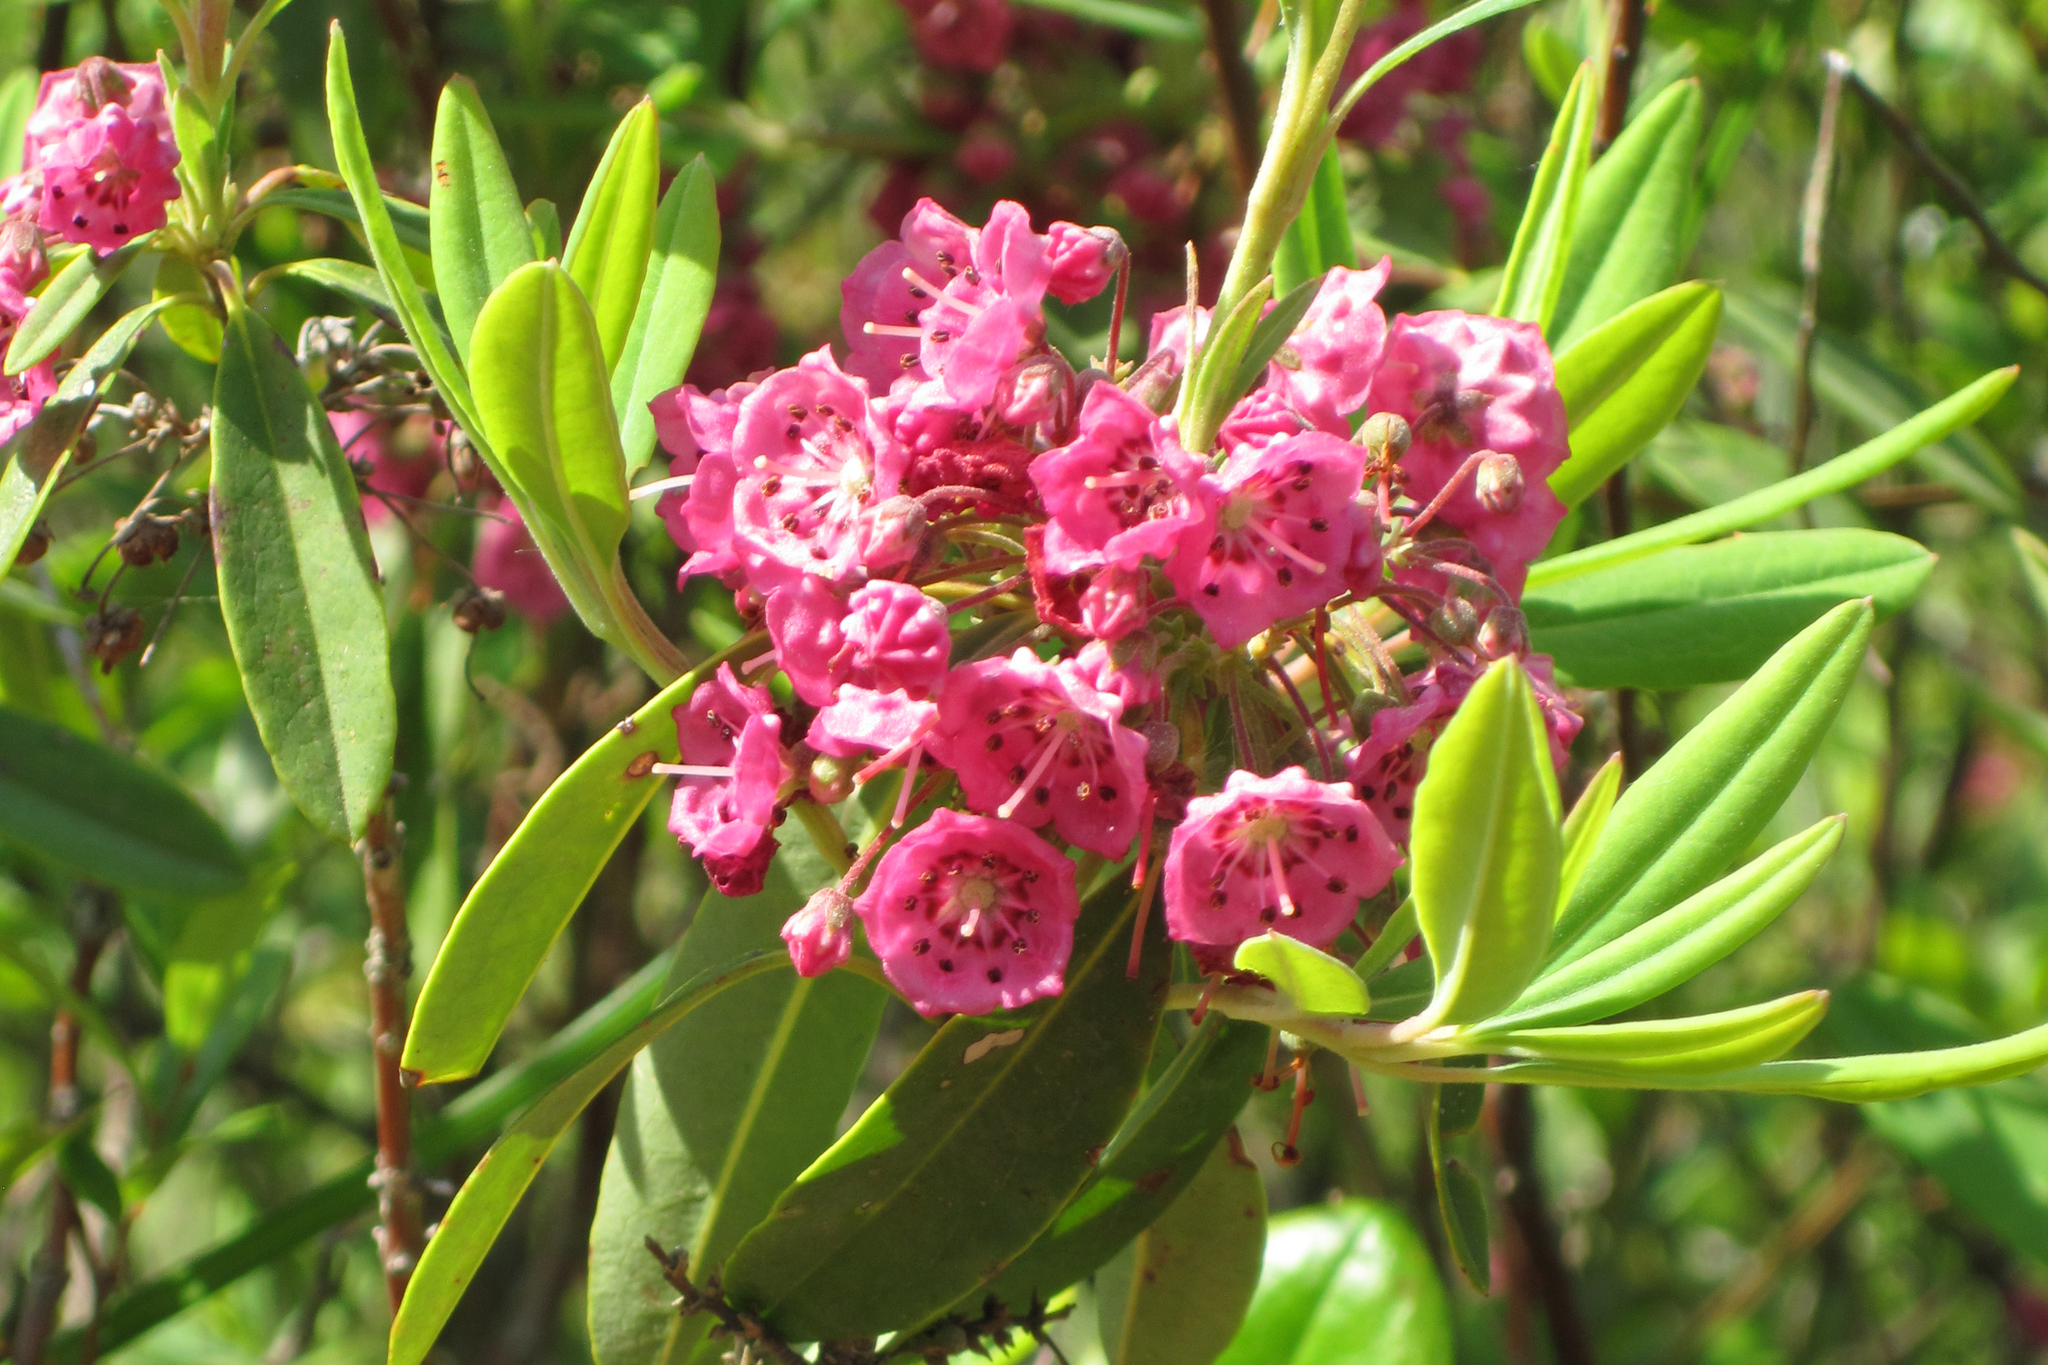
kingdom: Plantae
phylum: Tracheophyta
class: Magnoliopsida
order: Ericales
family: Ericaceae
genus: Kalmia
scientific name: Kalmia angustifolia
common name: Sheep-laurel
